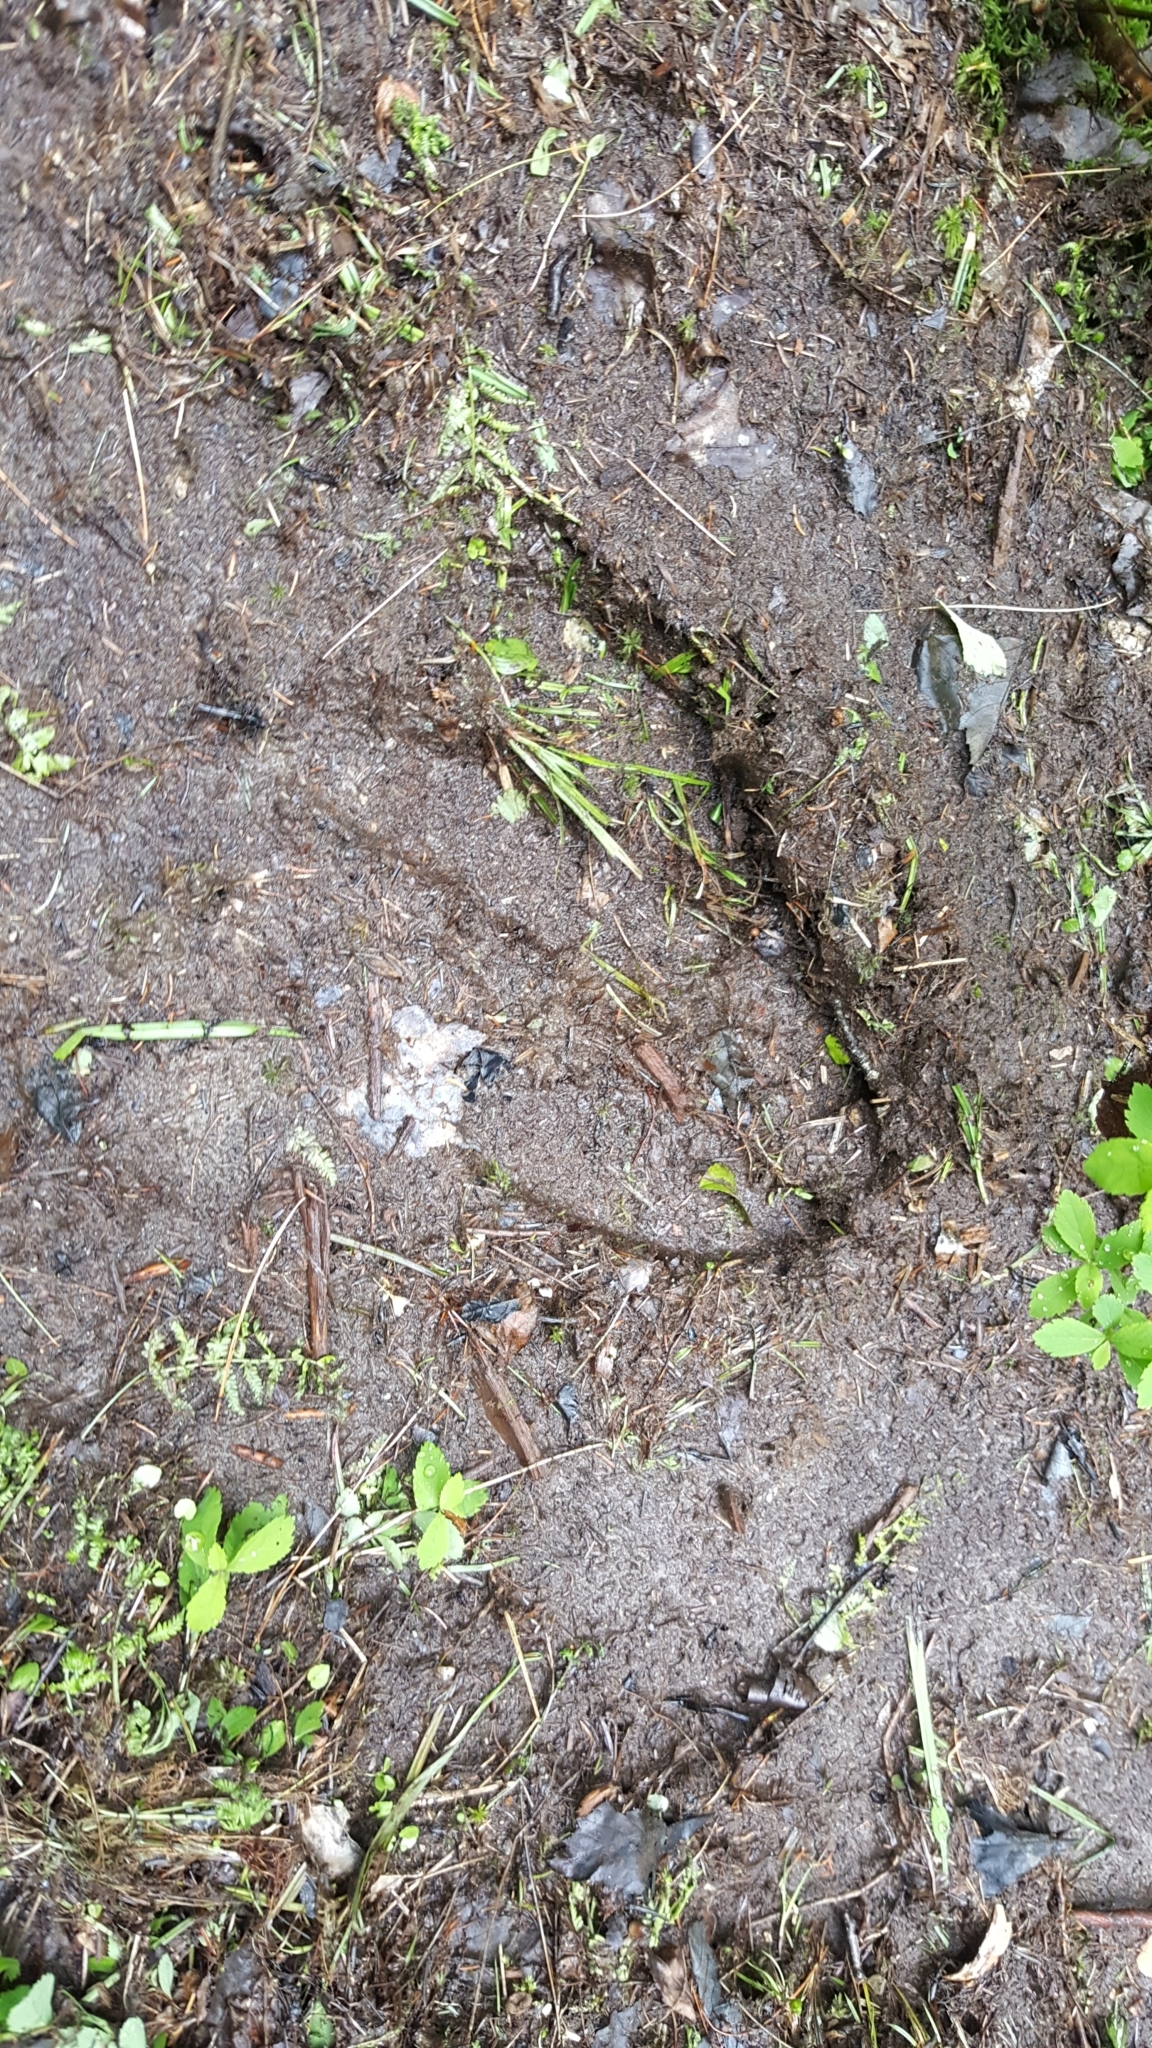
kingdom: Animalia
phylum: Chordata
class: Mammalia
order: Artiodactyla
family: Cervidae
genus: Alces
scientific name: Alces alces
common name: Moose
